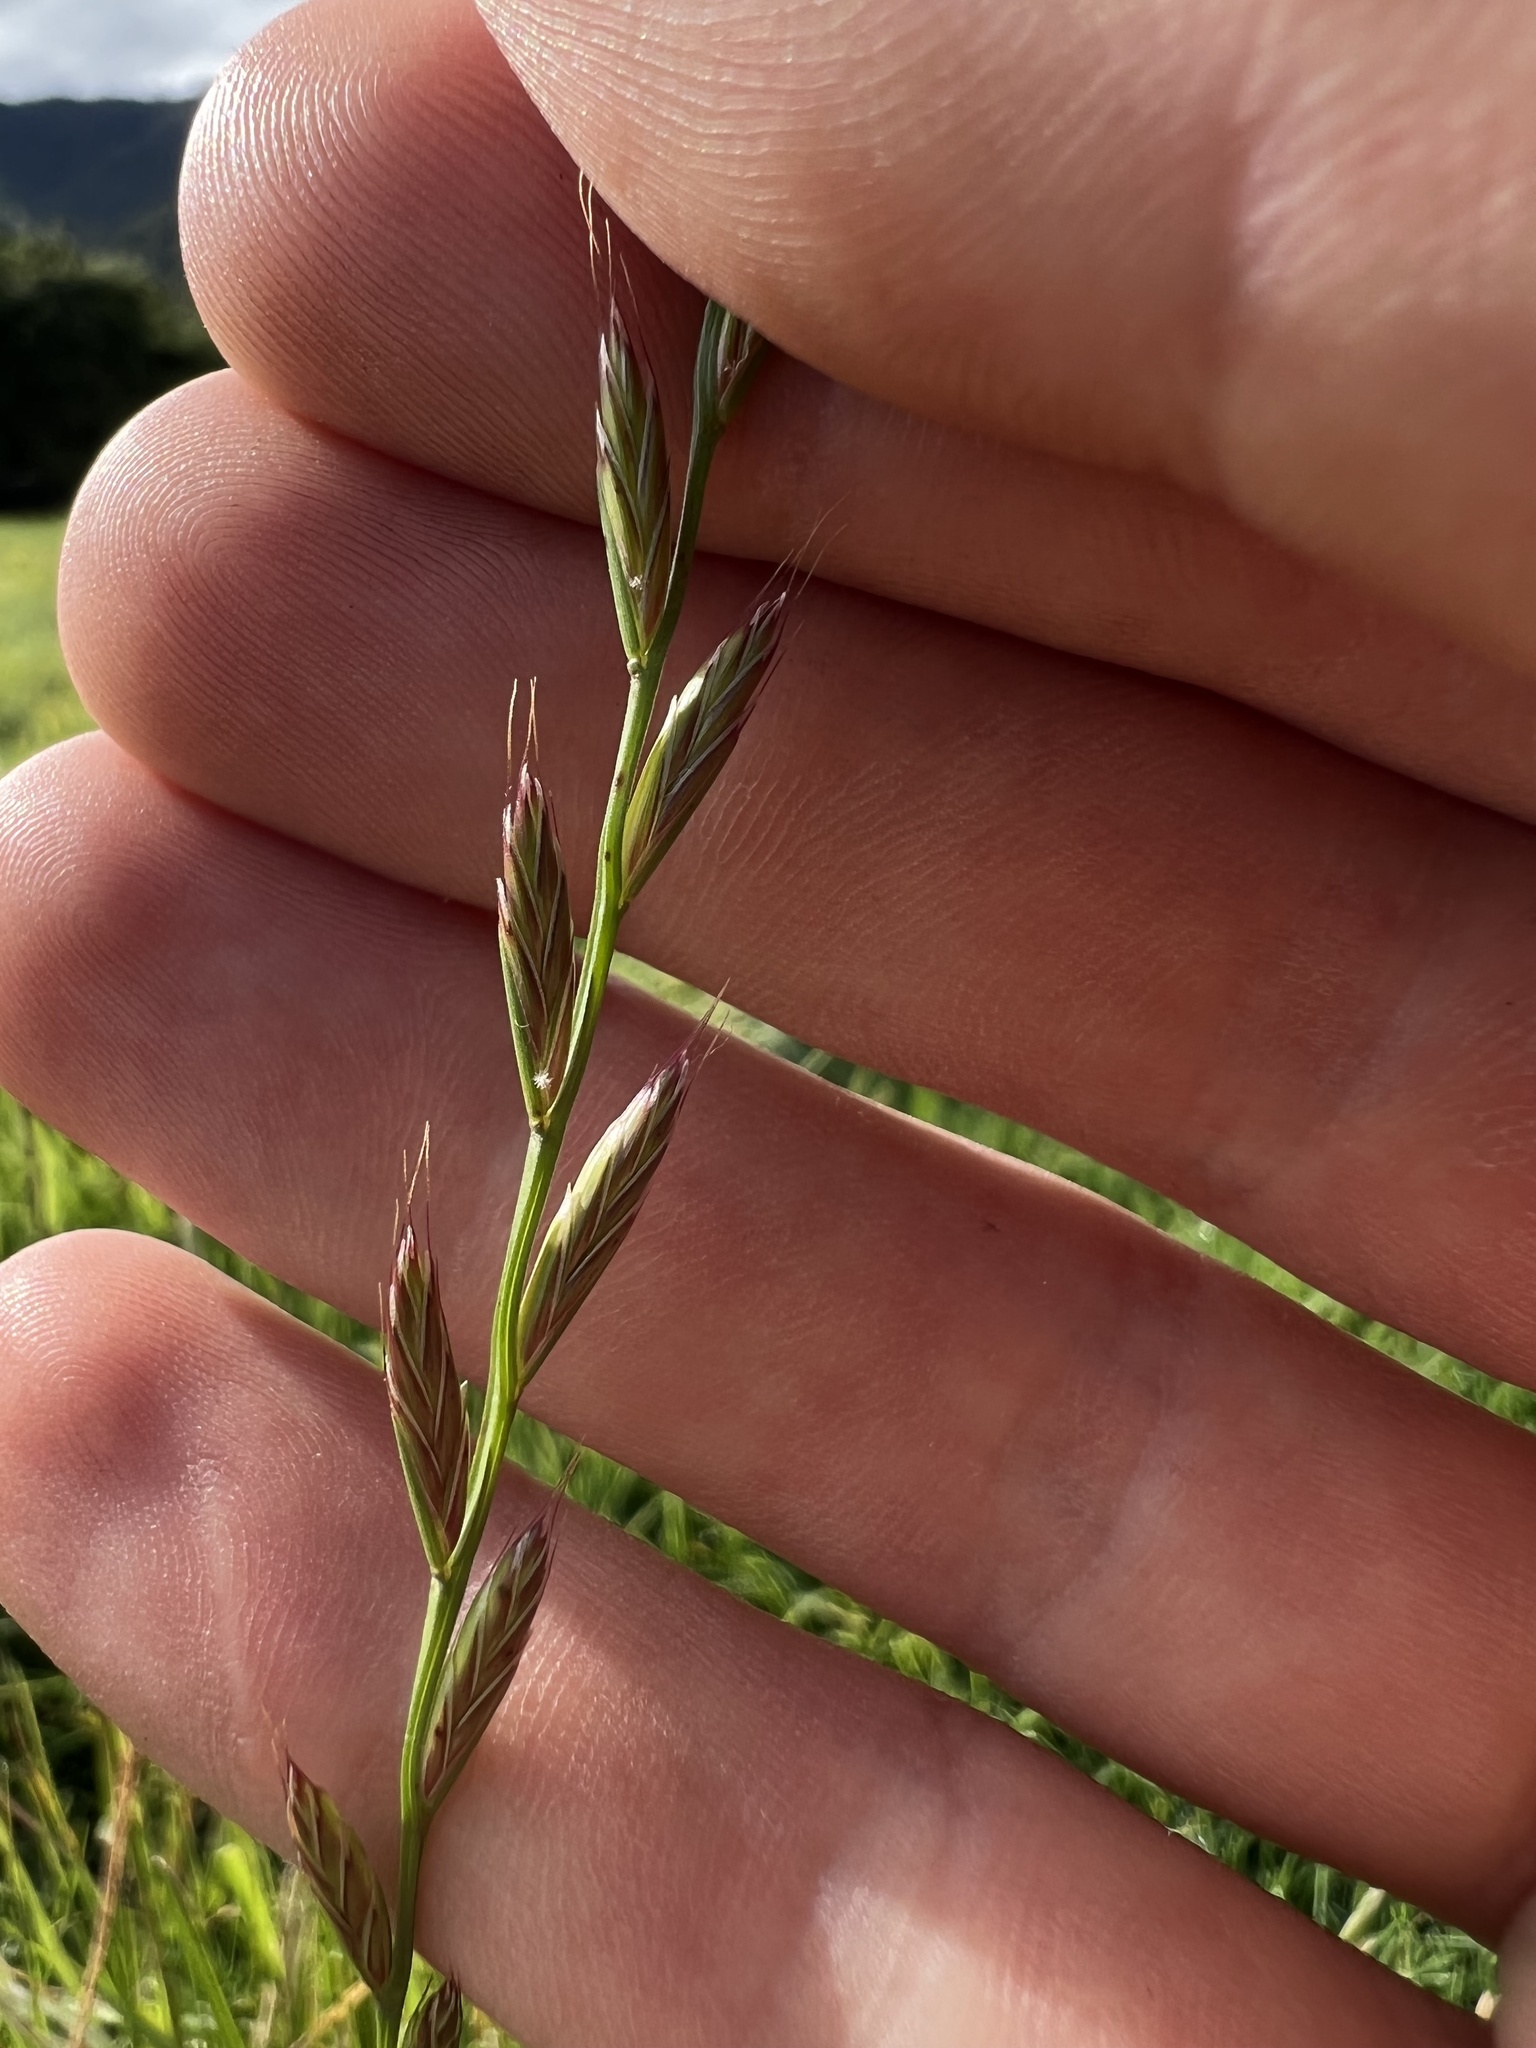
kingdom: Plantae
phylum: Tracheophyta
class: Liliopsida
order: Poales
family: Poaceae
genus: Lolium
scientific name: Lolium perenne
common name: Perennial ryegrass
